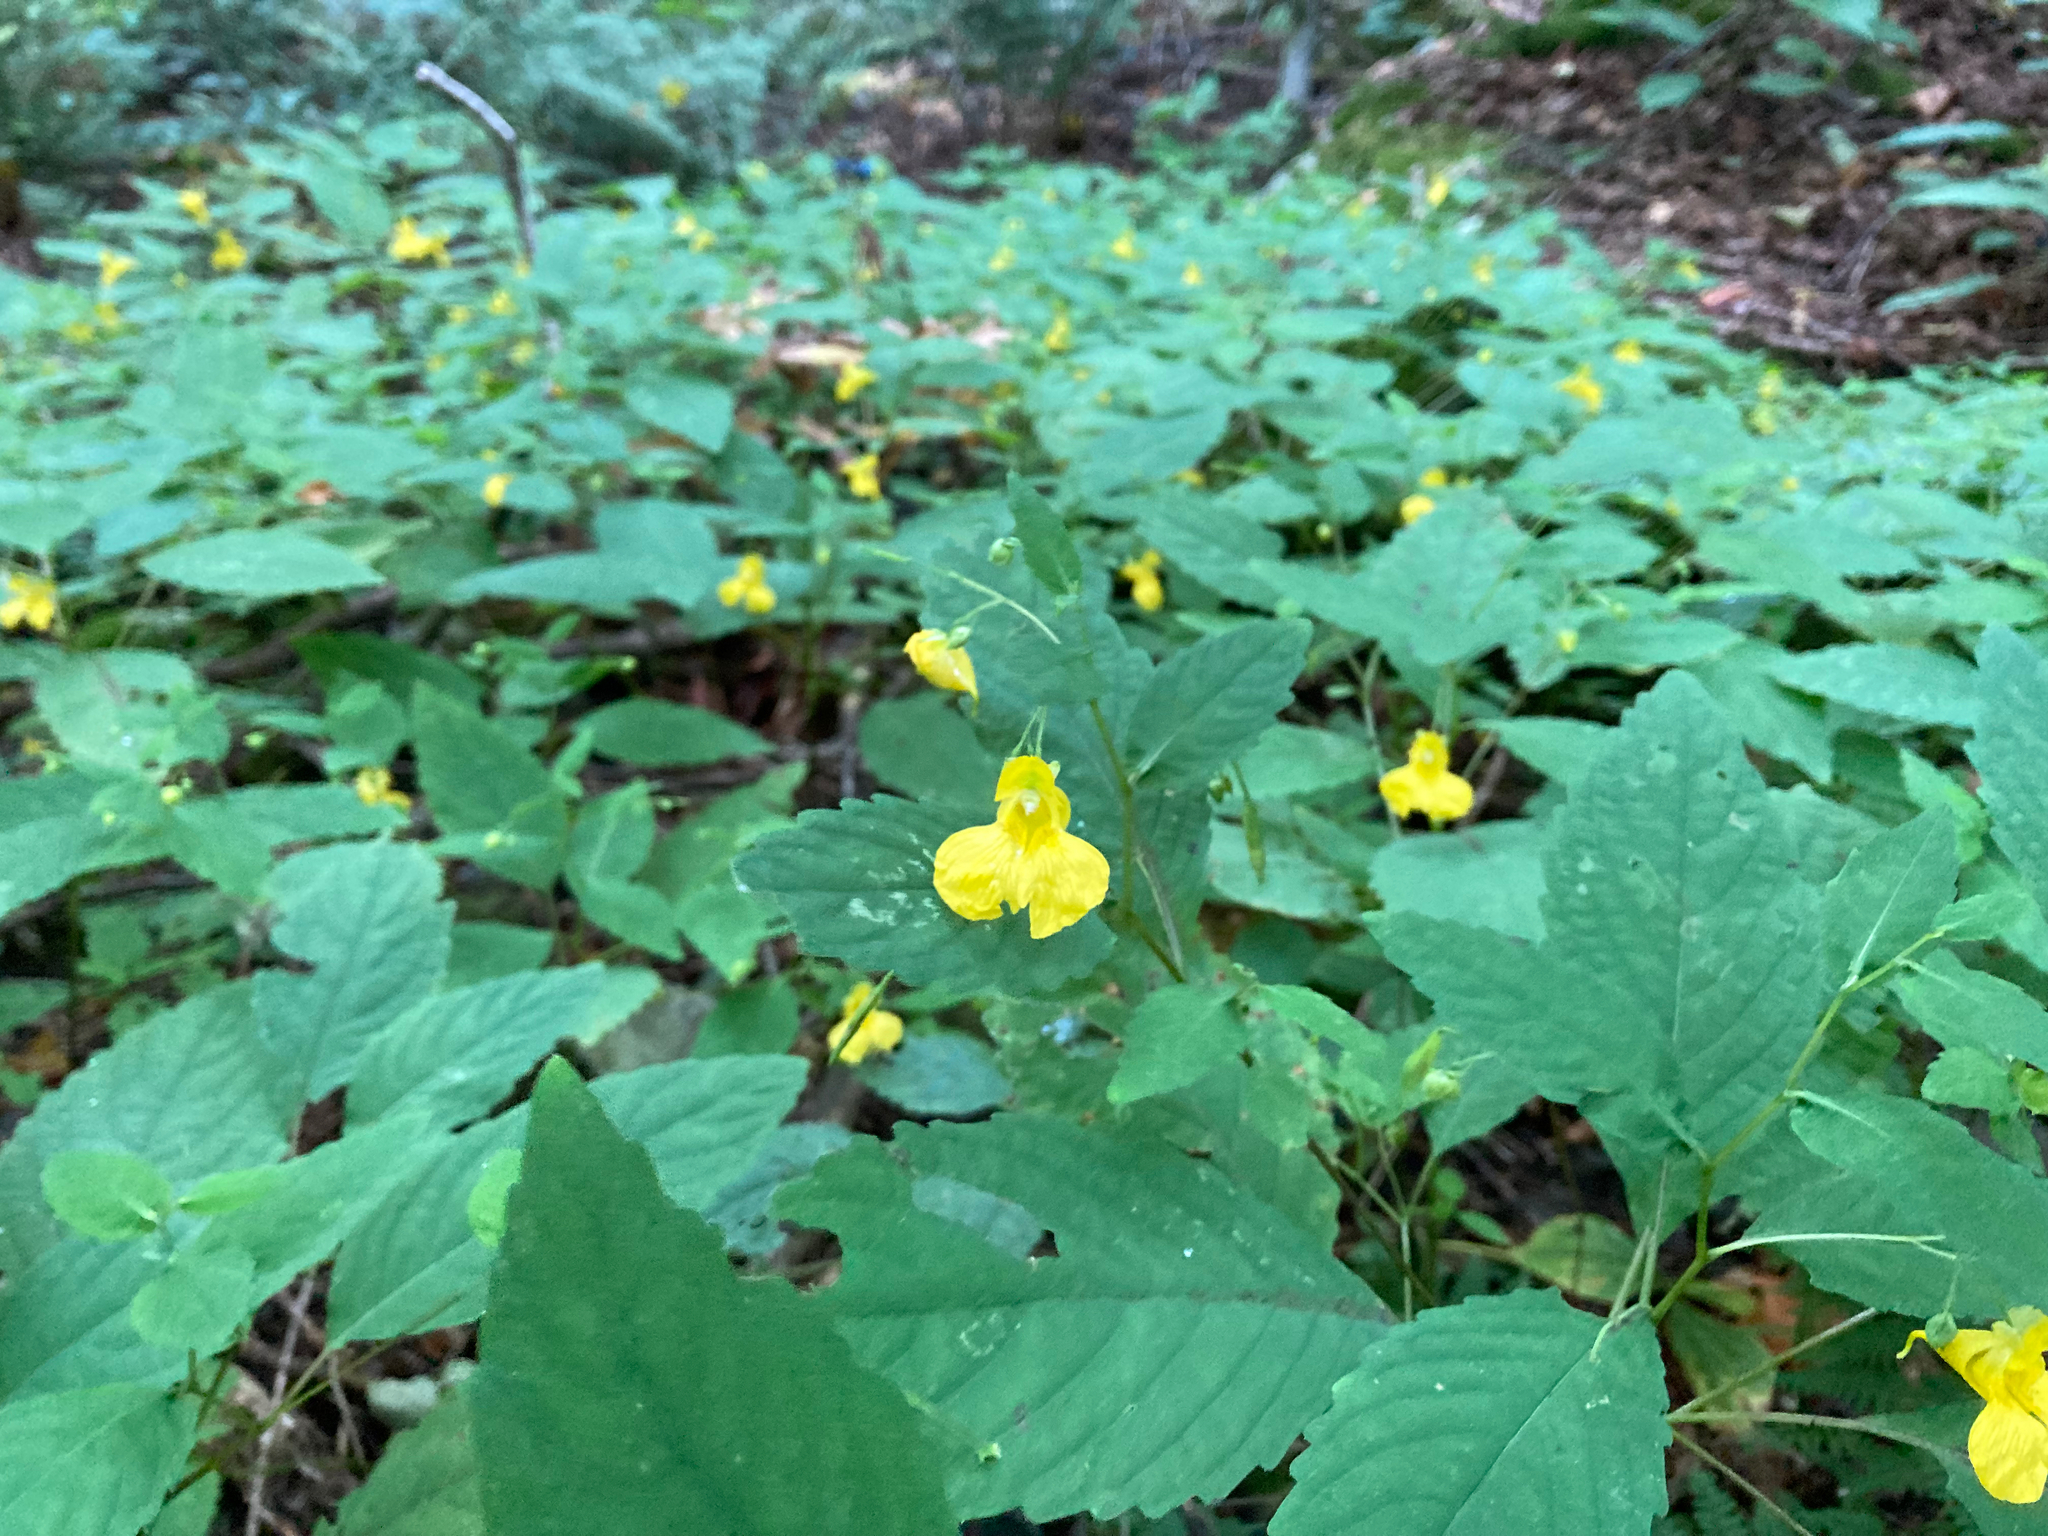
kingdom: Plantae
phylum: Tracheophyta
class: Magnoliopsida
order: Ericales
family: Balsaminaceae
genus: Impatiens
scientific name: Impatiens pallida
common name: Pale snapweed
